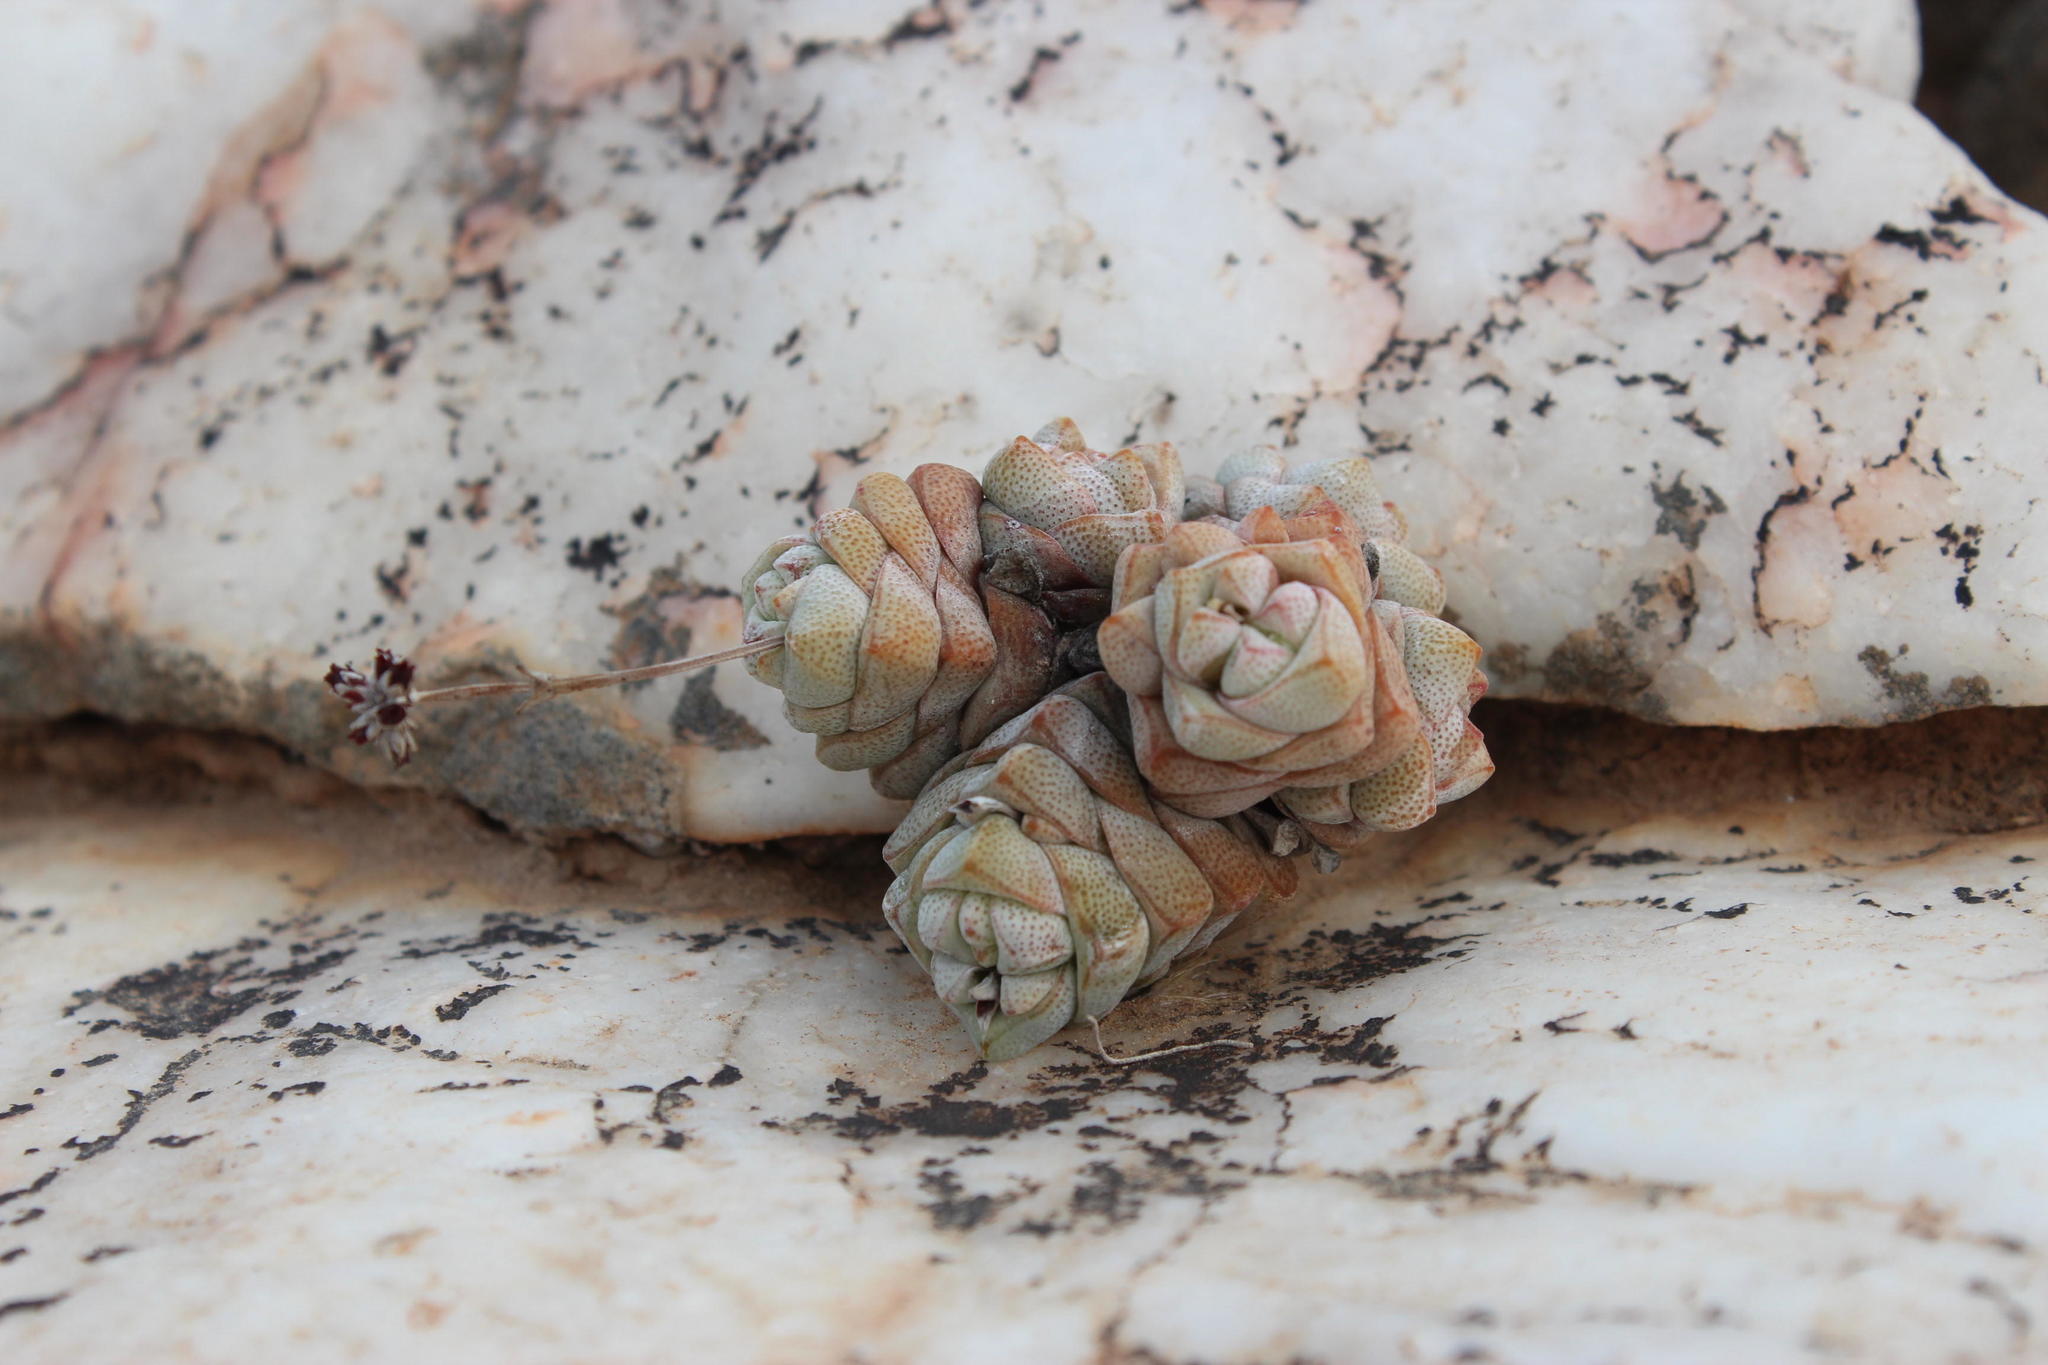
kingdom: Plantae
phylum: Tracheophyta
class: Magnoliopsida
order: Saxifragales
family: Crassulaceae
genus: Crassula
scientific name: Crassula deceptor
